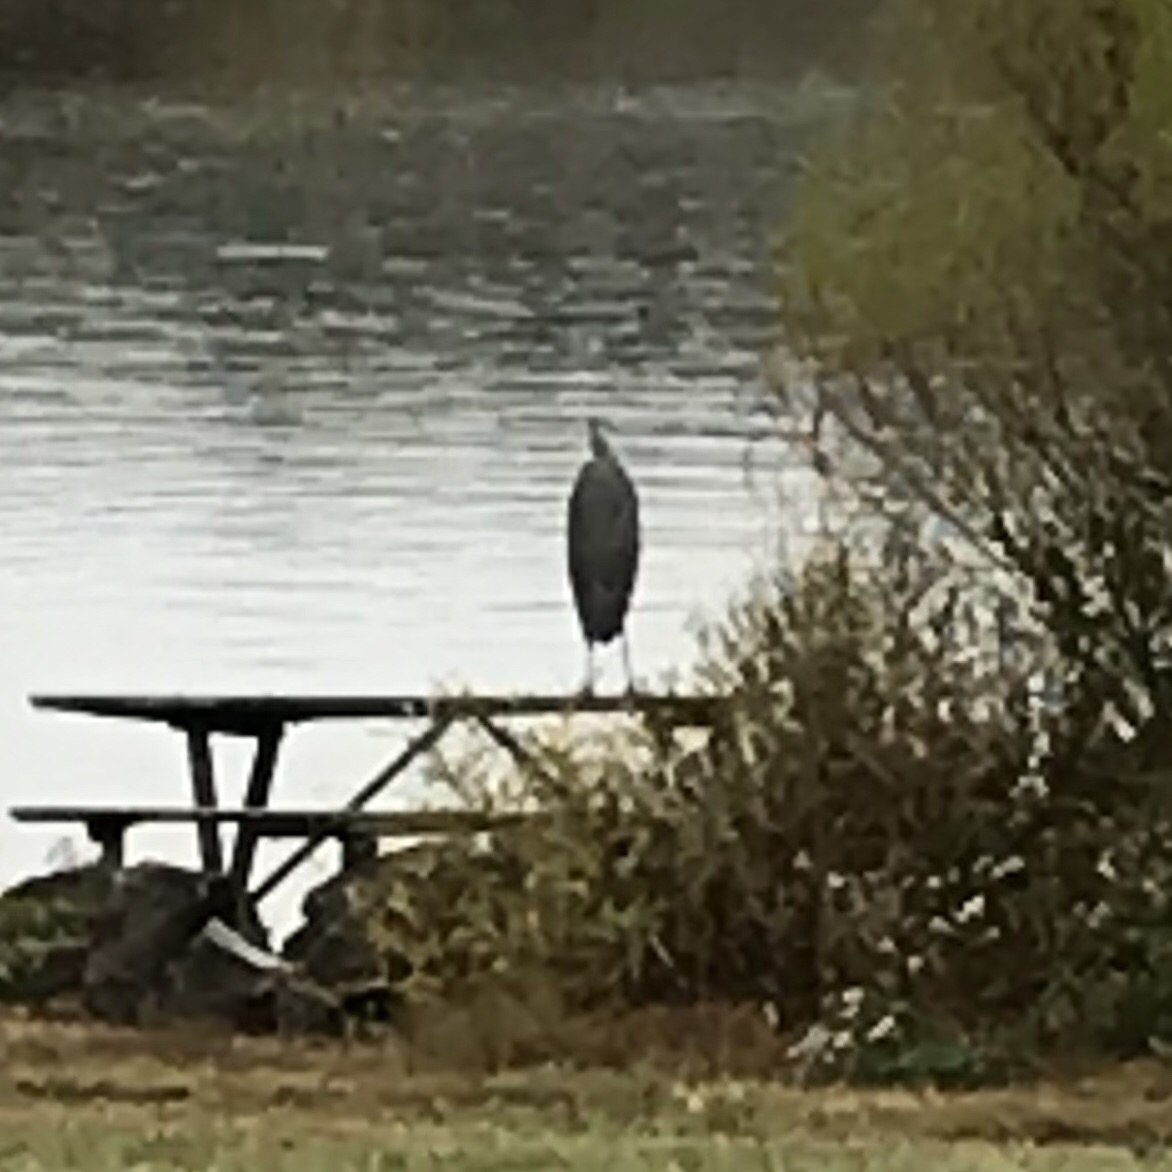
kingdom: Animalia
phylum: Chordata
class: Aves
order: Pelecaniformes
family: Ardeidae
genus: Ardea
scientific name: Ardea herodias
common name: Great blue heron
